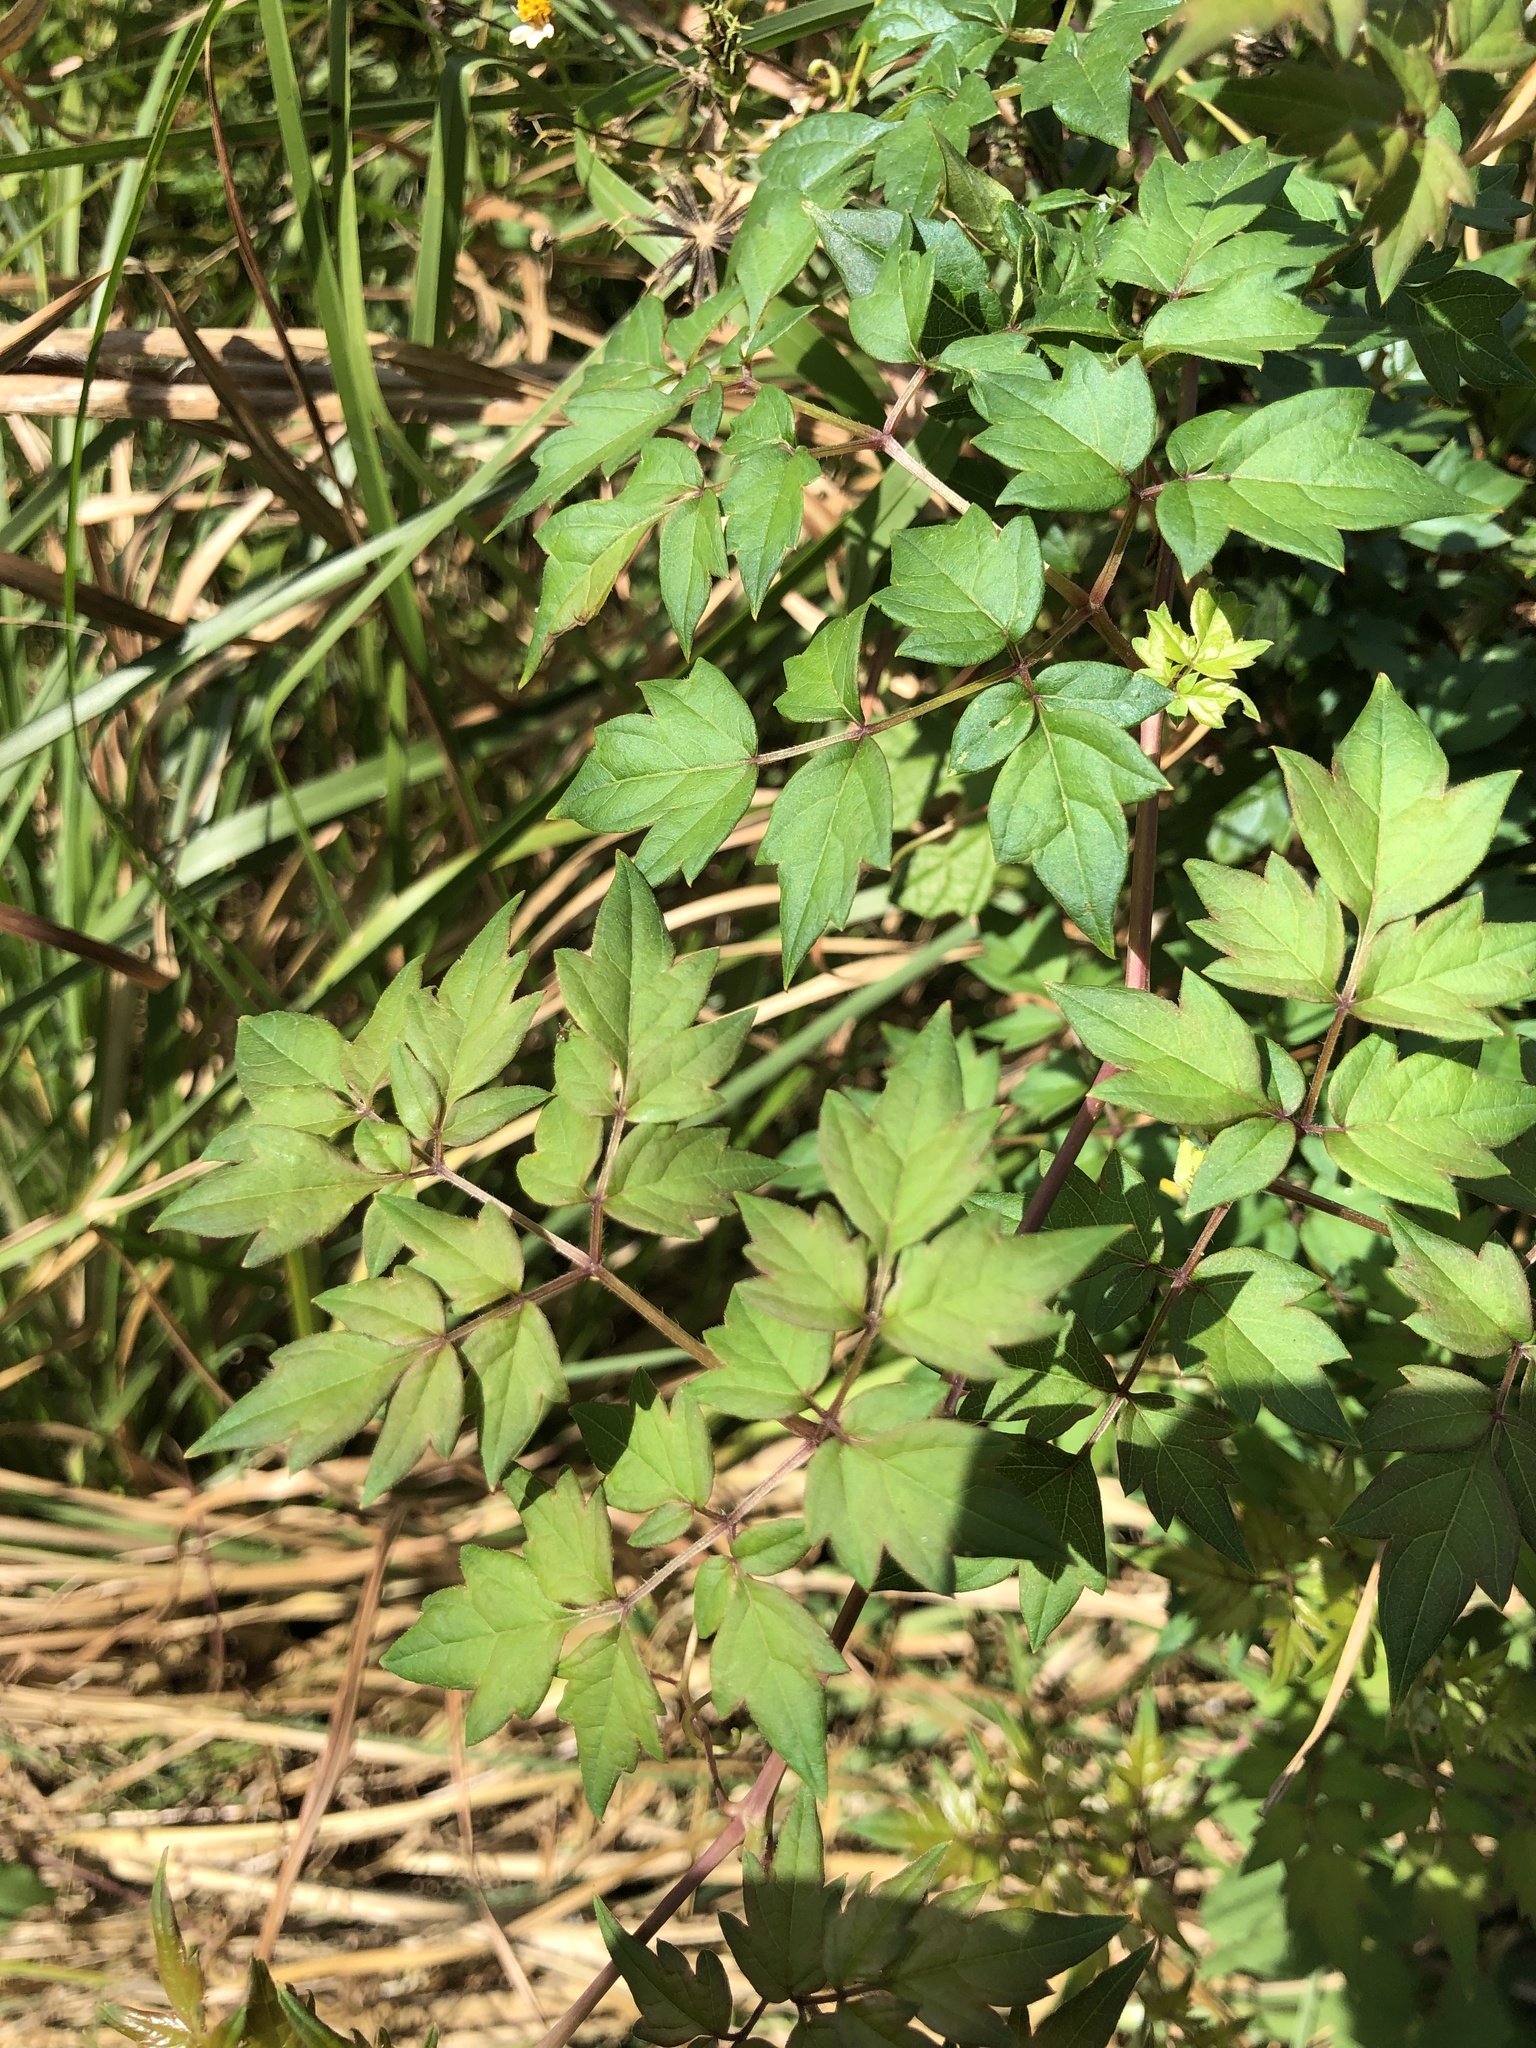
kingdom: Plantae
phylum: Tracheophyta
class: Magnoliopsida
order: Vitales
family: Vitaceae
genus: Nekemias
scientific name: Nekemias arborea
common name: Peppervine
